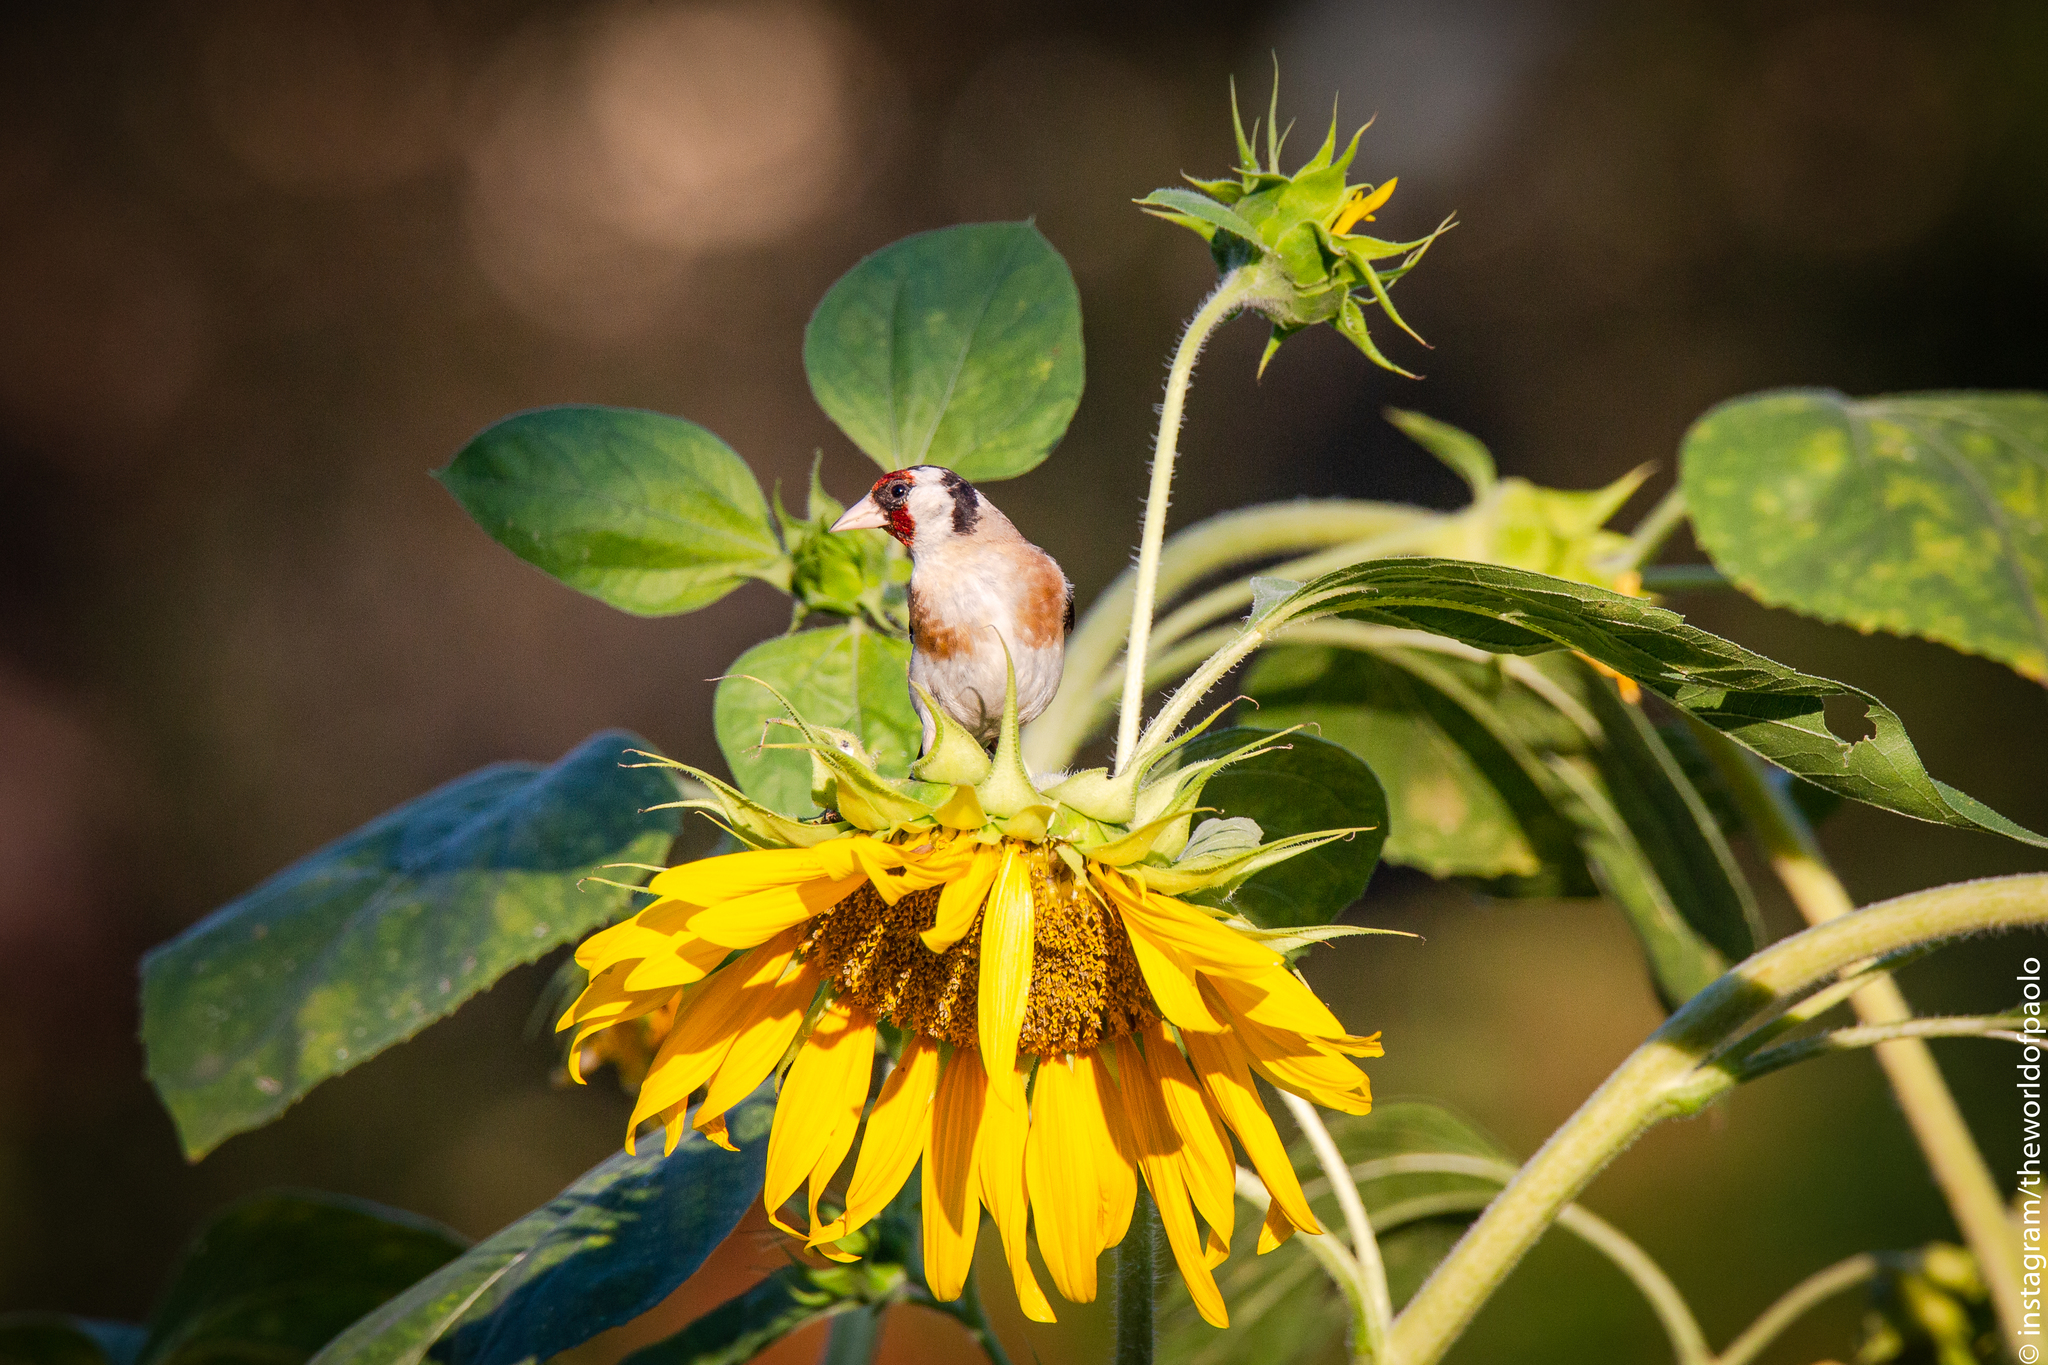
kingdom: Animalia
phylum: Chordata
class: Aves
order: Passeriformes
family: Fringillidae
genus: Carduelis
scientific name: Carduelis carduelis
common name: European goldfinch
